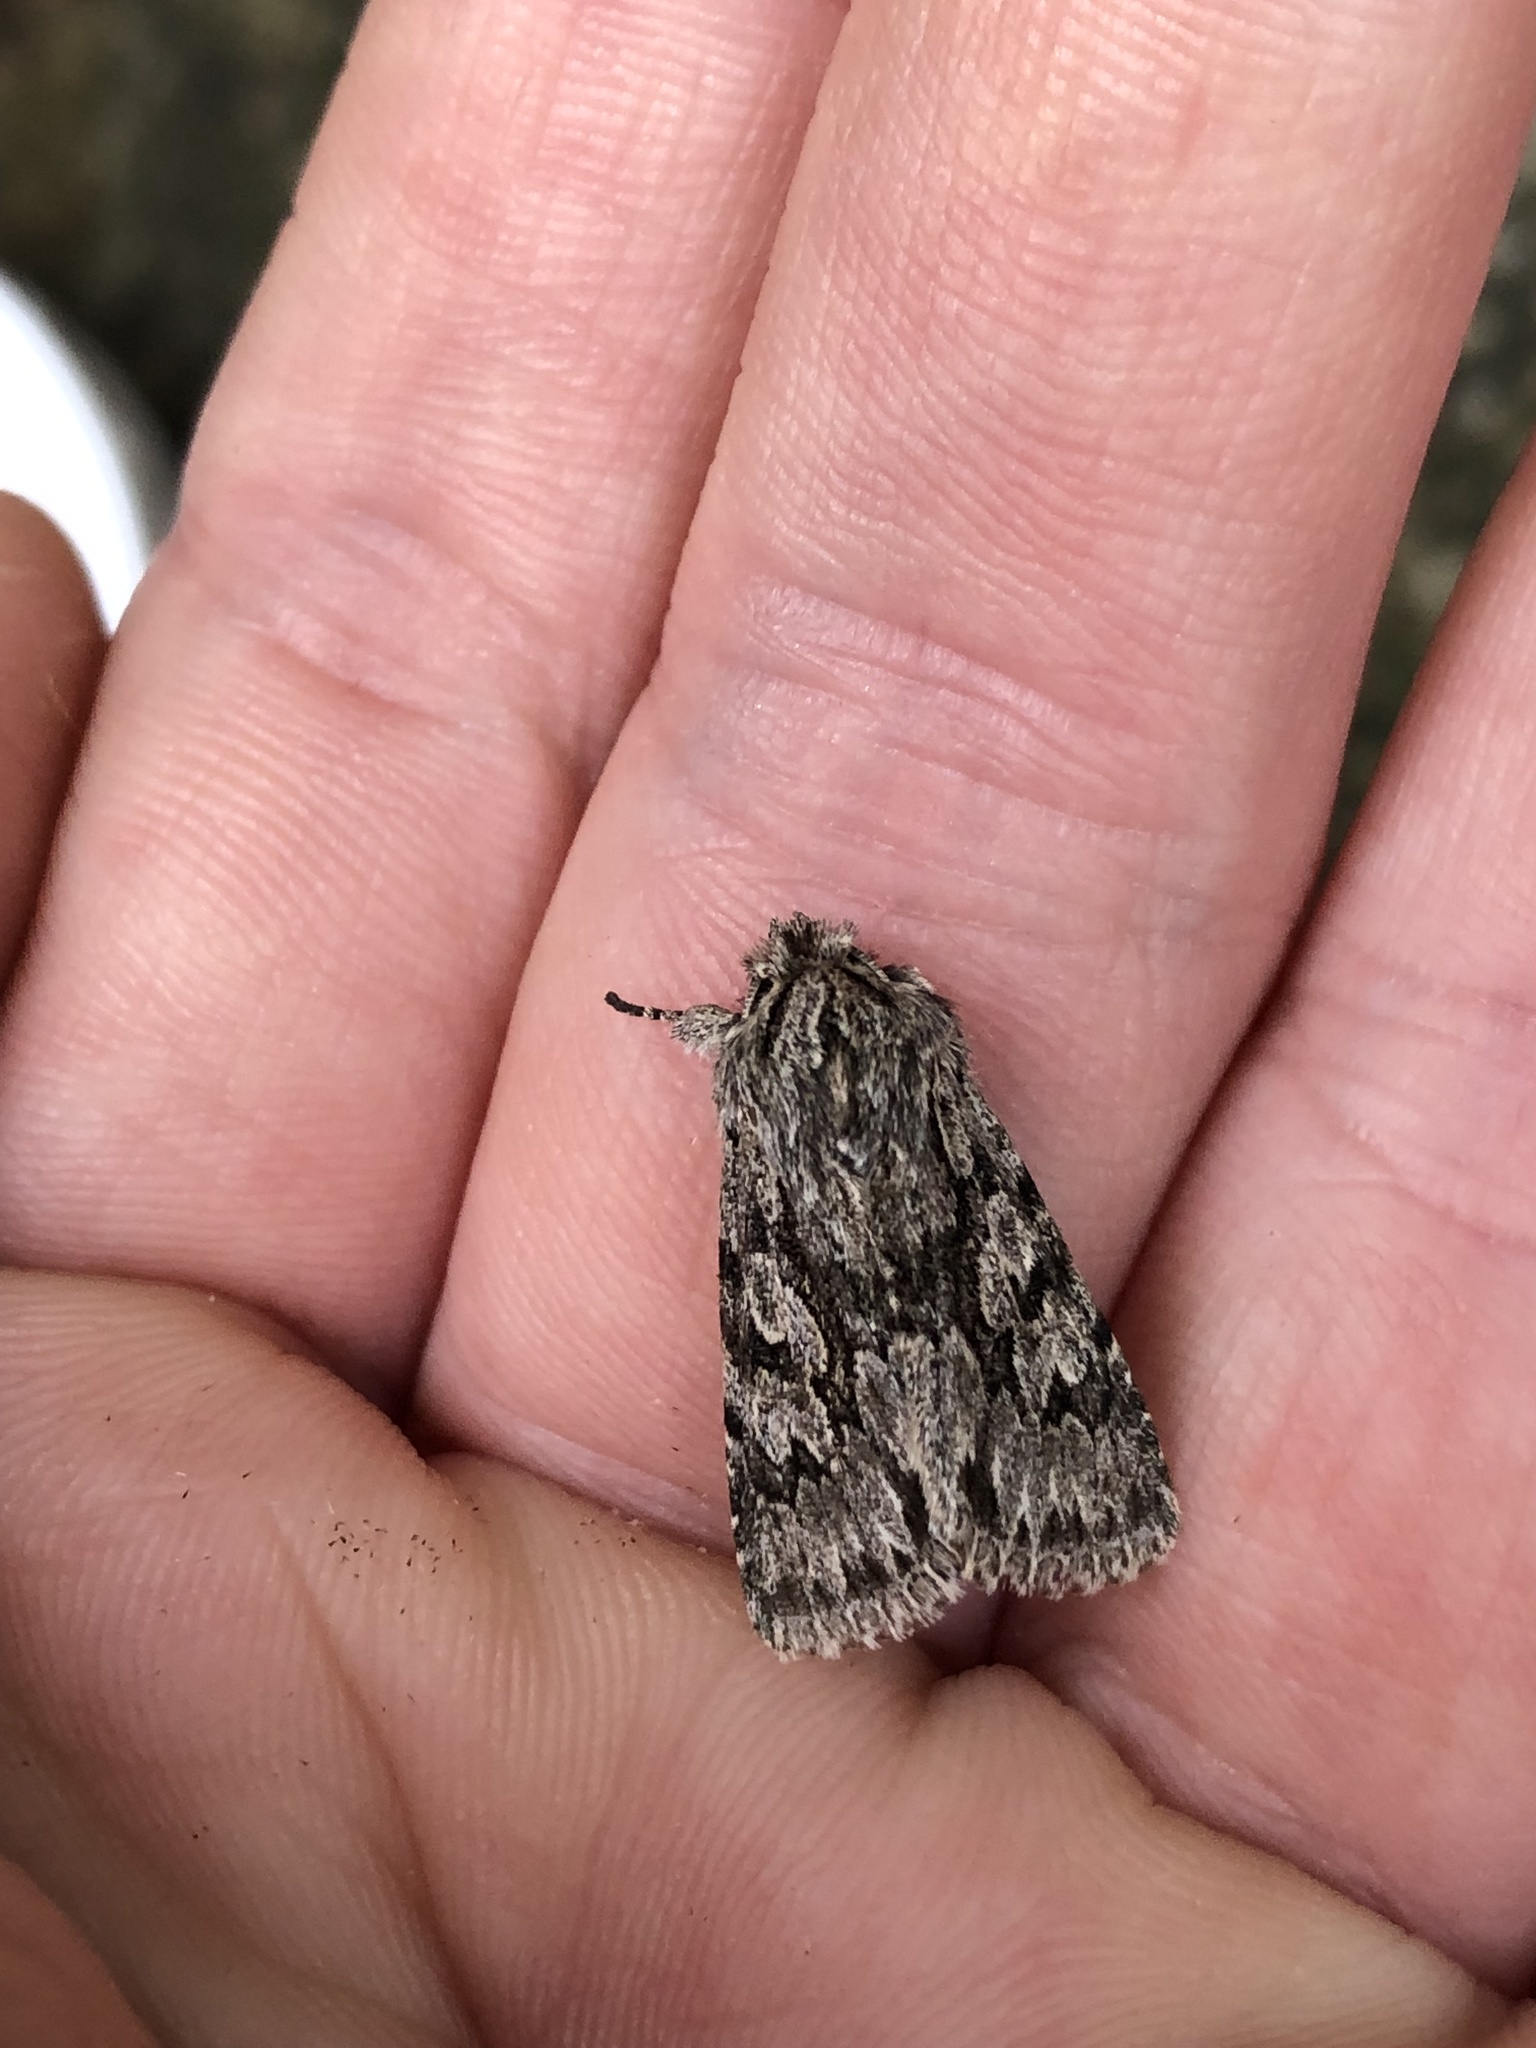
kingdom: Animalia
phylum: Arthropoda
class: Insecta
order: Lepidoptera
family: Noctuidae
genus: Xylocampa
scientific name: Xylocampa areola
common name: Early grey
